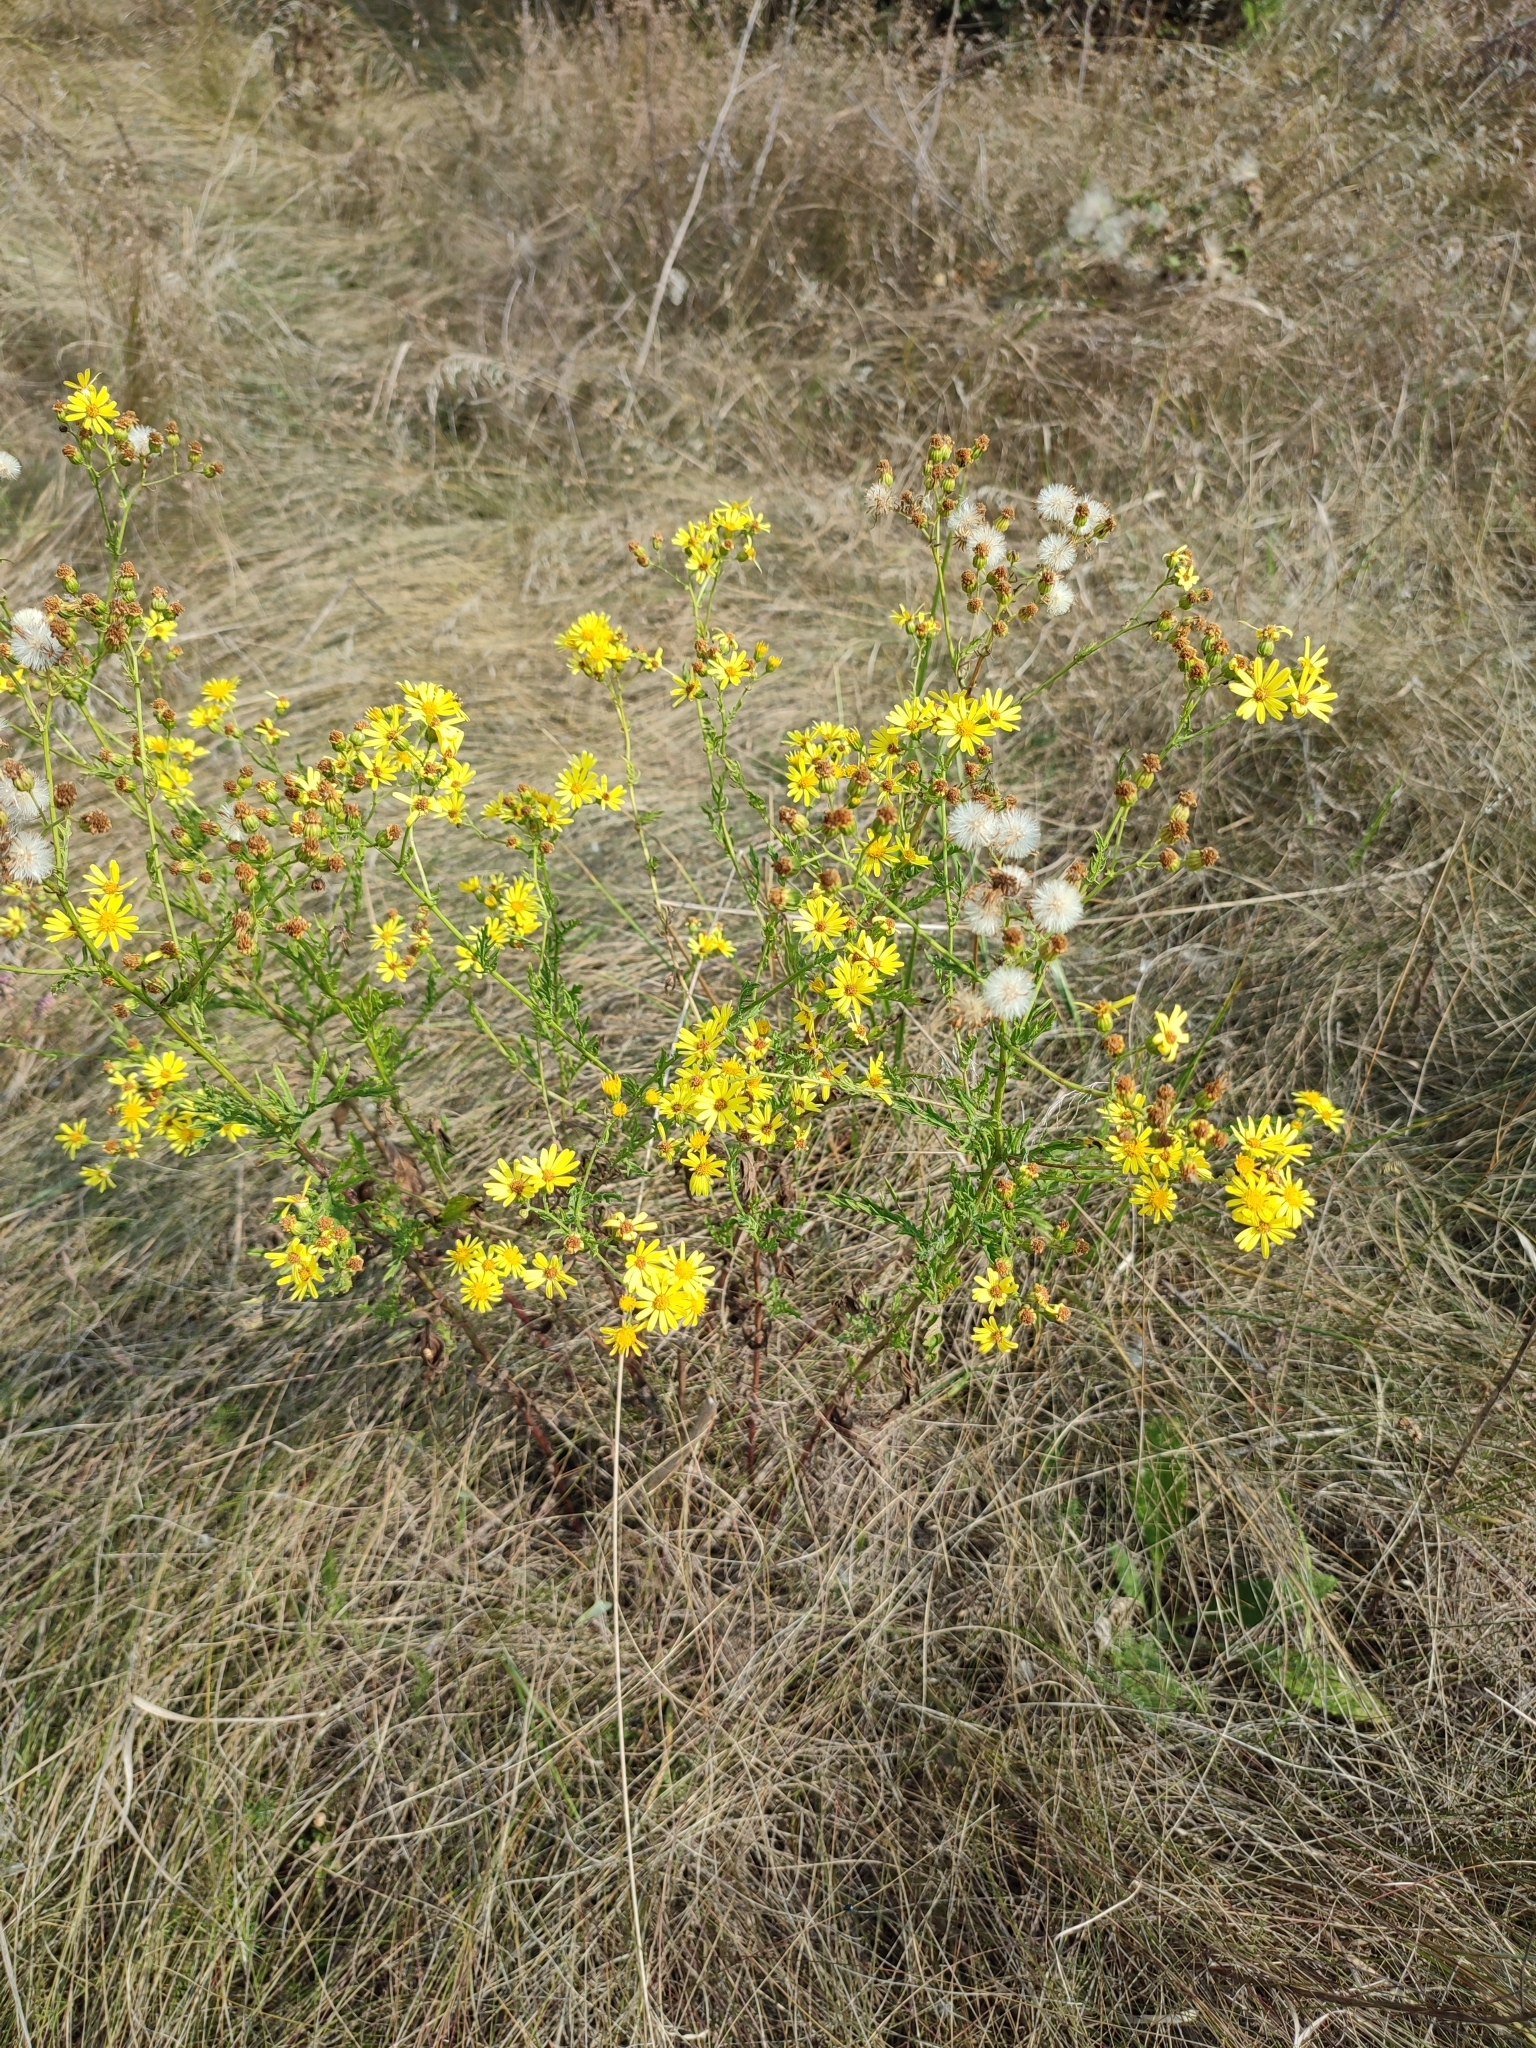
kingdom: Plantae
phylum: Tracheophyta
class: Magnoliopsida
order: Asterales
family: Asteraceae
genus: Jacobaea
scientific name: Jacobaea erucifolia
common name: Hoary ragwort
